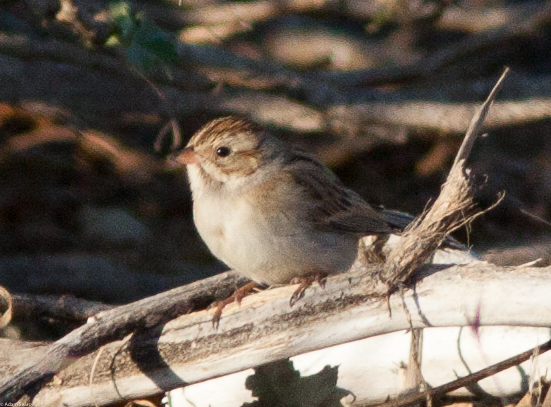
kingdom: Animalia
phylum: Chordata
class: Aves
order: Passeriformes
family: Passerellidae
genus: Spizella
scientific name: Spizella pallida
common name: Clay-colored sparrow
